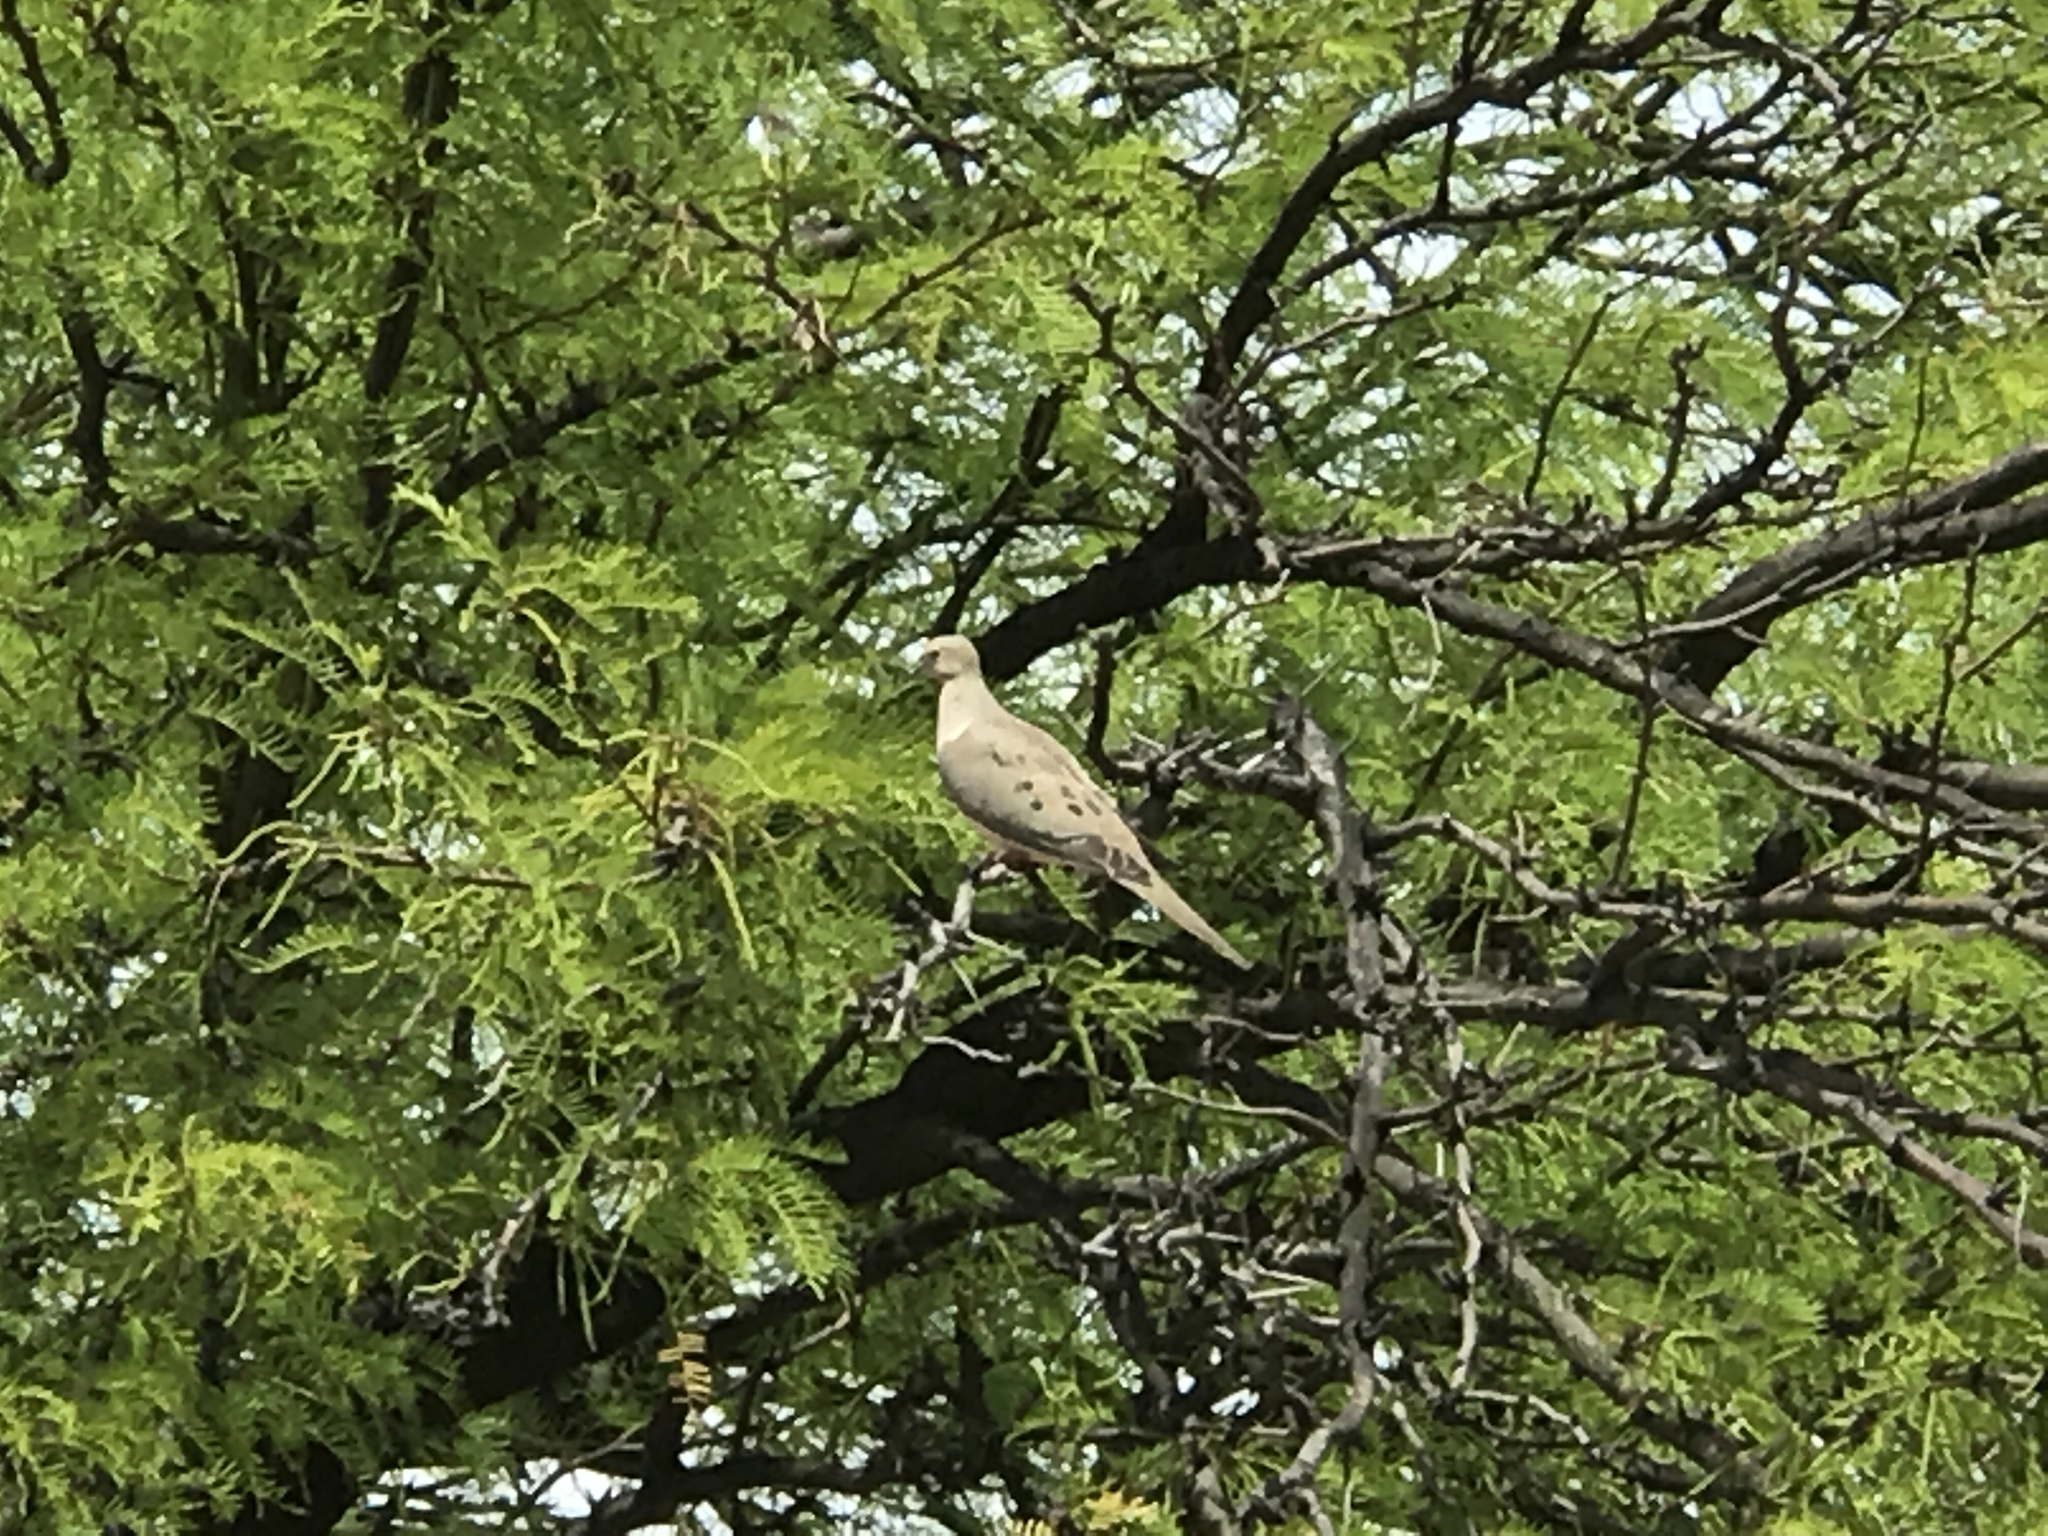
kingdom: Animalia
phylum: Chordata
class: Aves
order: Columbiformes
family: Columbidae
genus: Zenaida
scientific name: Zenaida macroura
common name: Mourning dove
